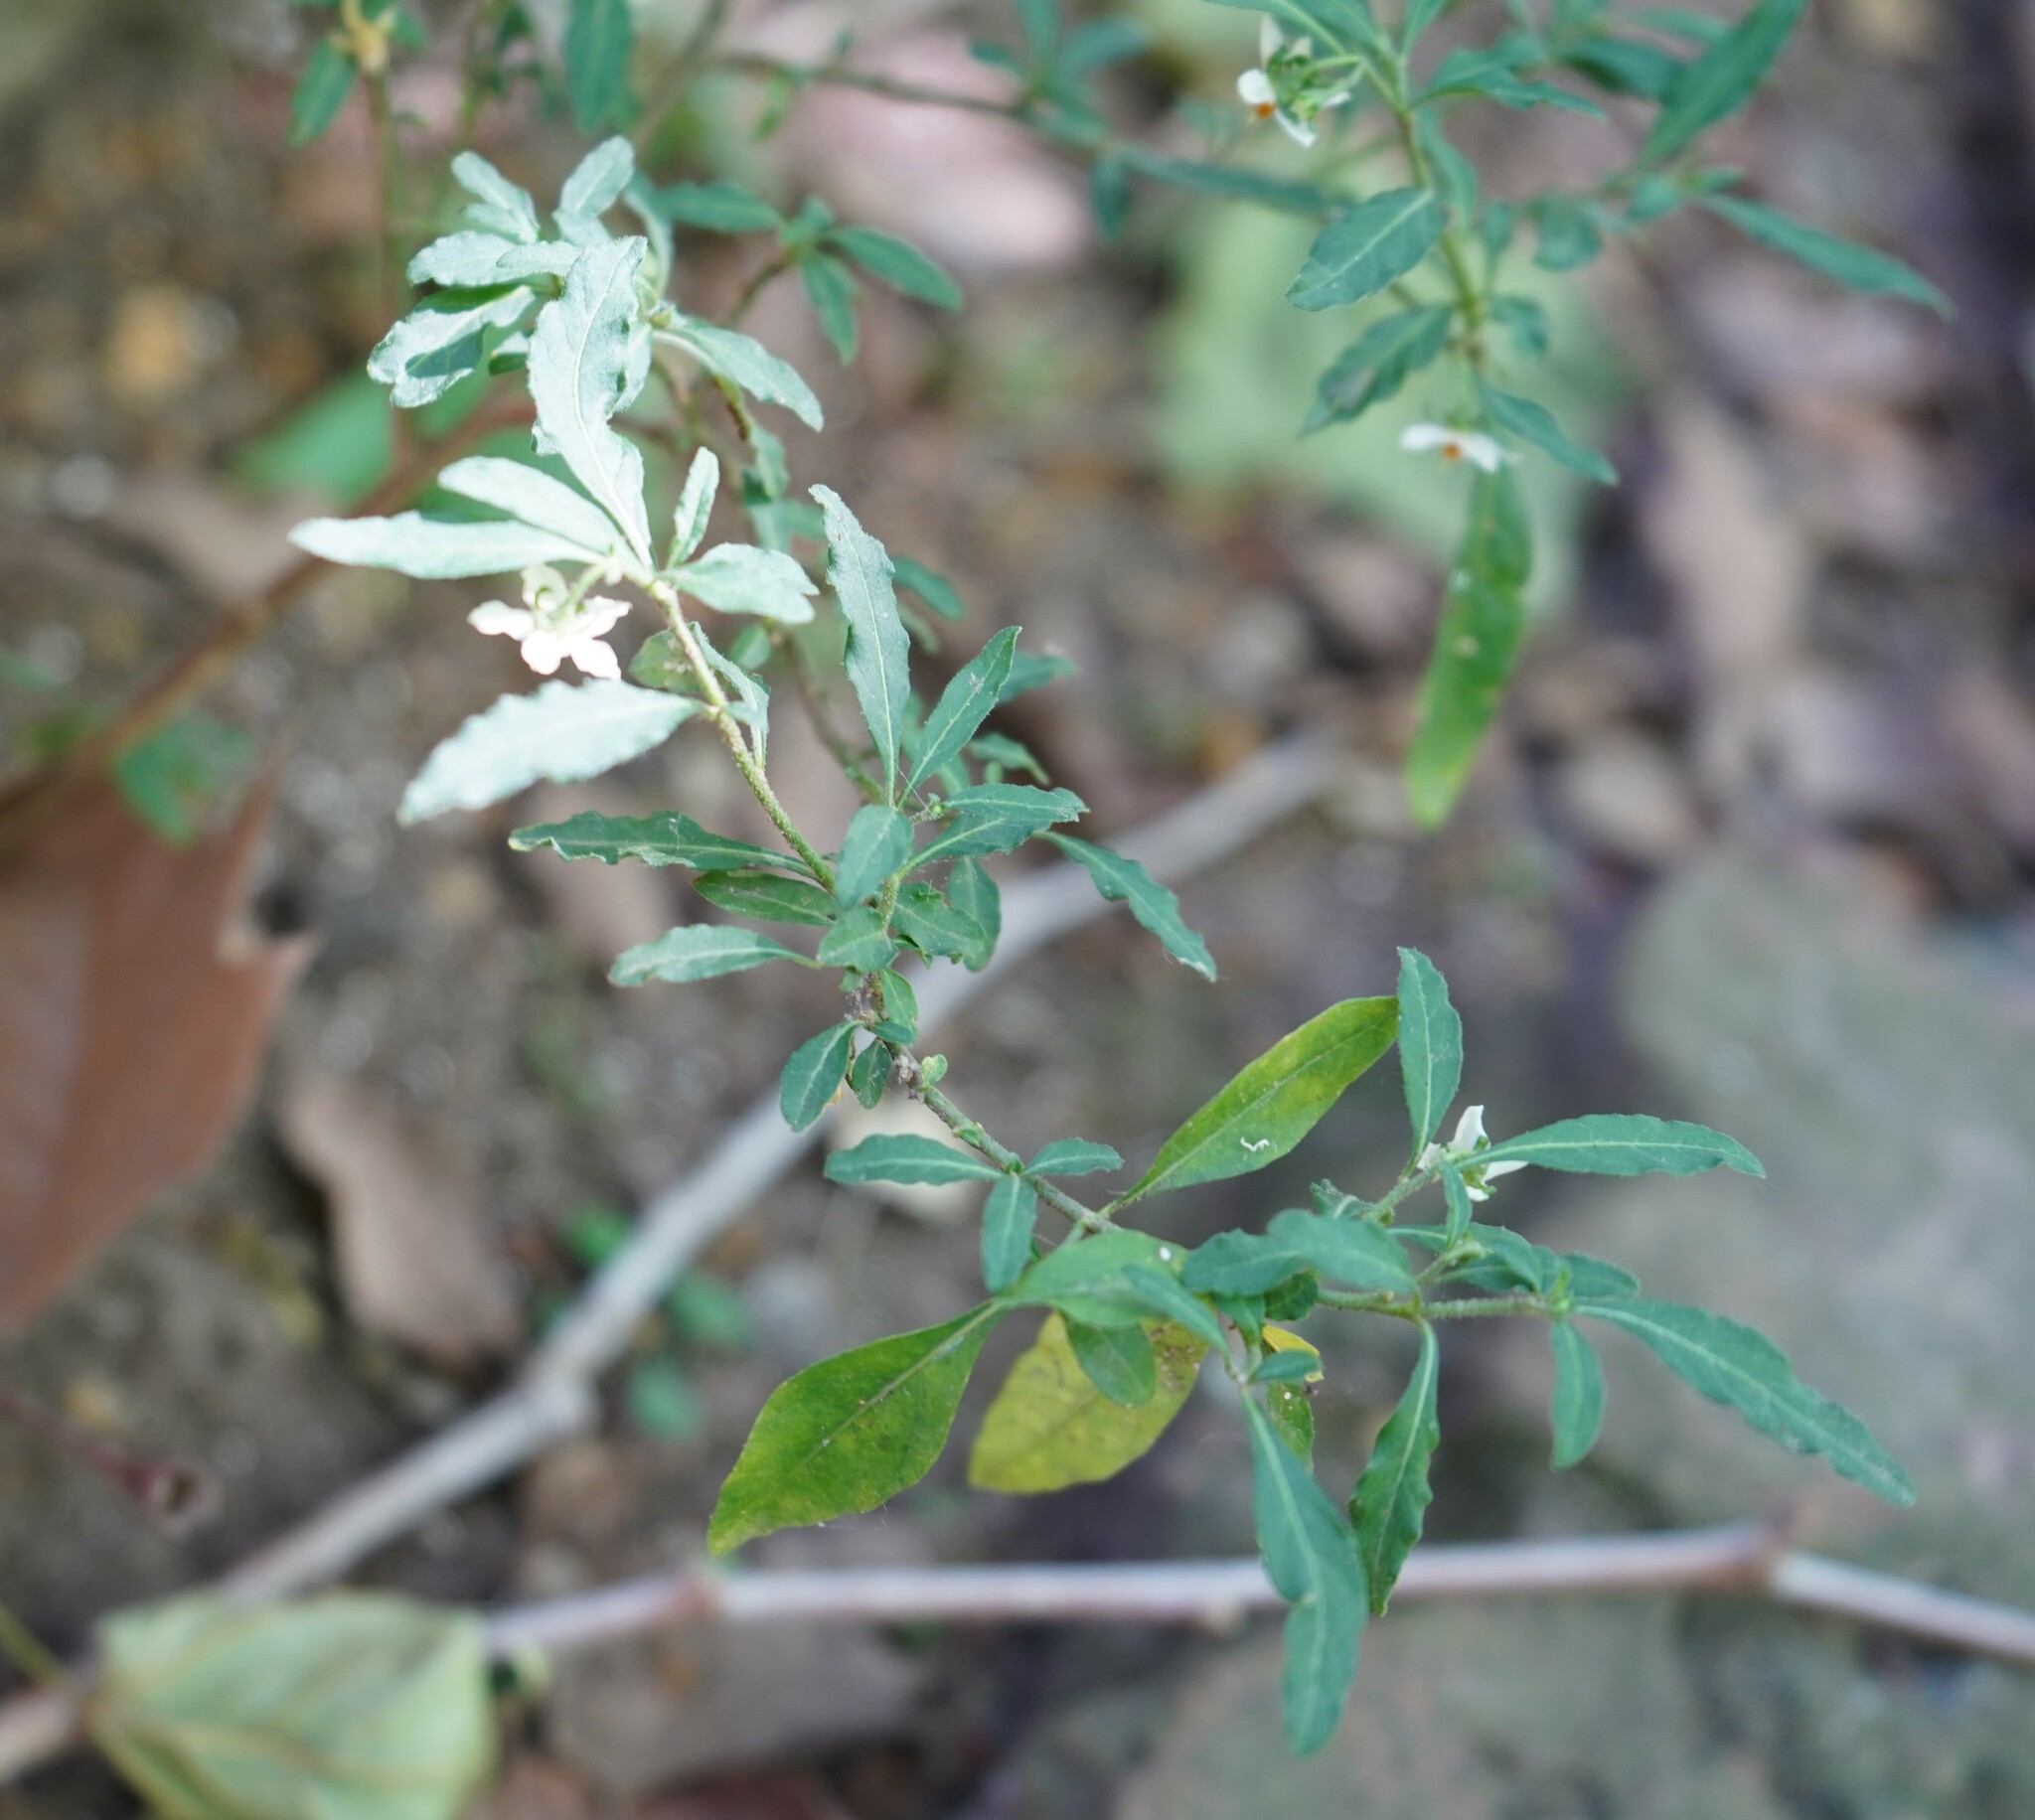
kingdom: Plantae
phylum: Tracheophyta
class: Magnoliopsida
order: Solanales
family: Solanaceae
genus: Solanum
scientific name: Solanum pseudocapsicum
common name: Jerusalem cherry
